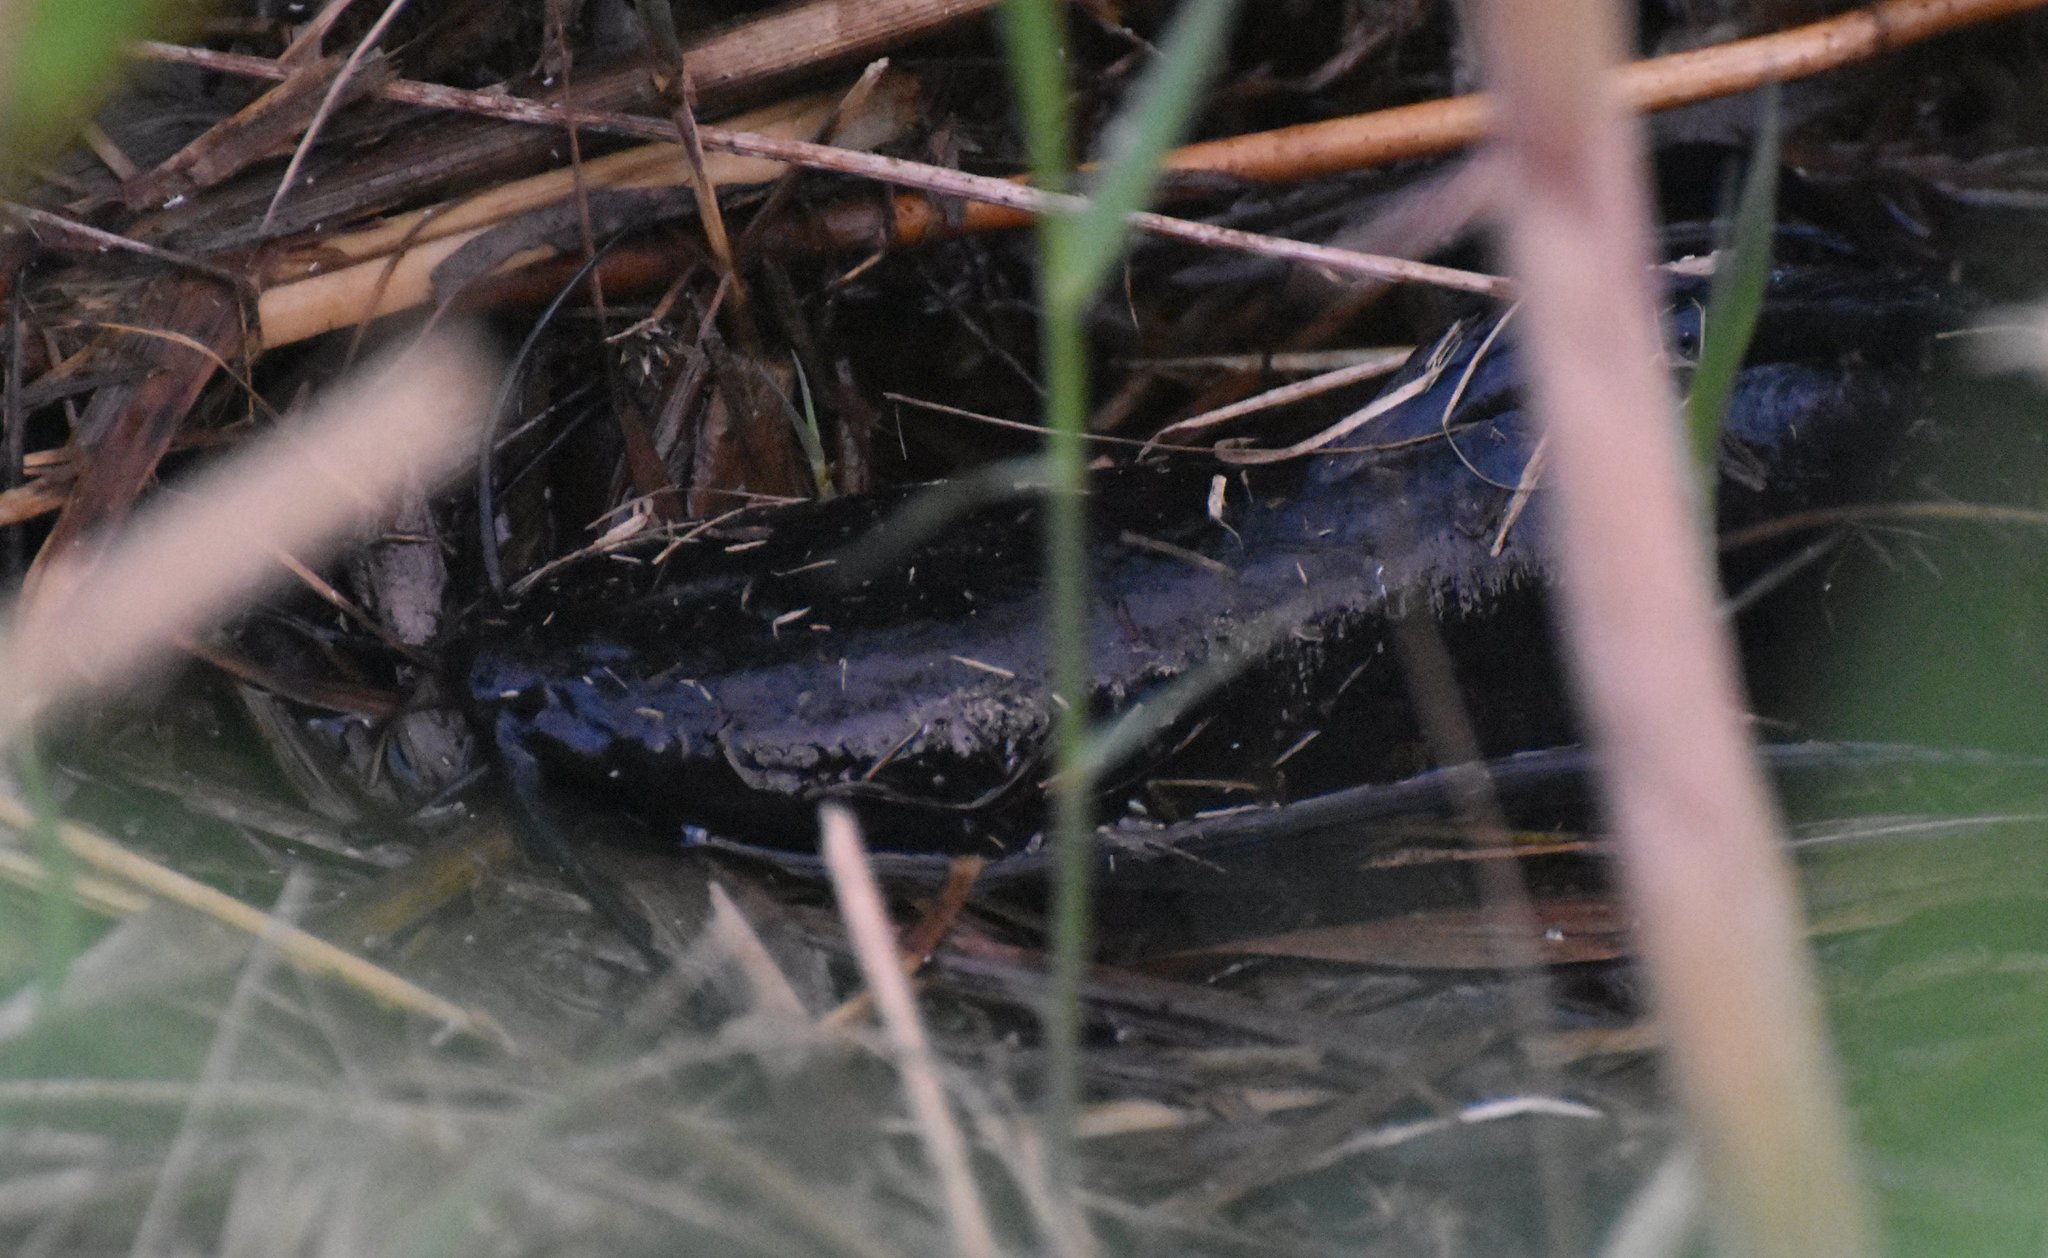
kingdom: Animalia
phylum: Chordata
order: Siluriformes
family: Clariidae
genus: Clarias
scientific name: Clarias batrachus
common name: Walking catfish
